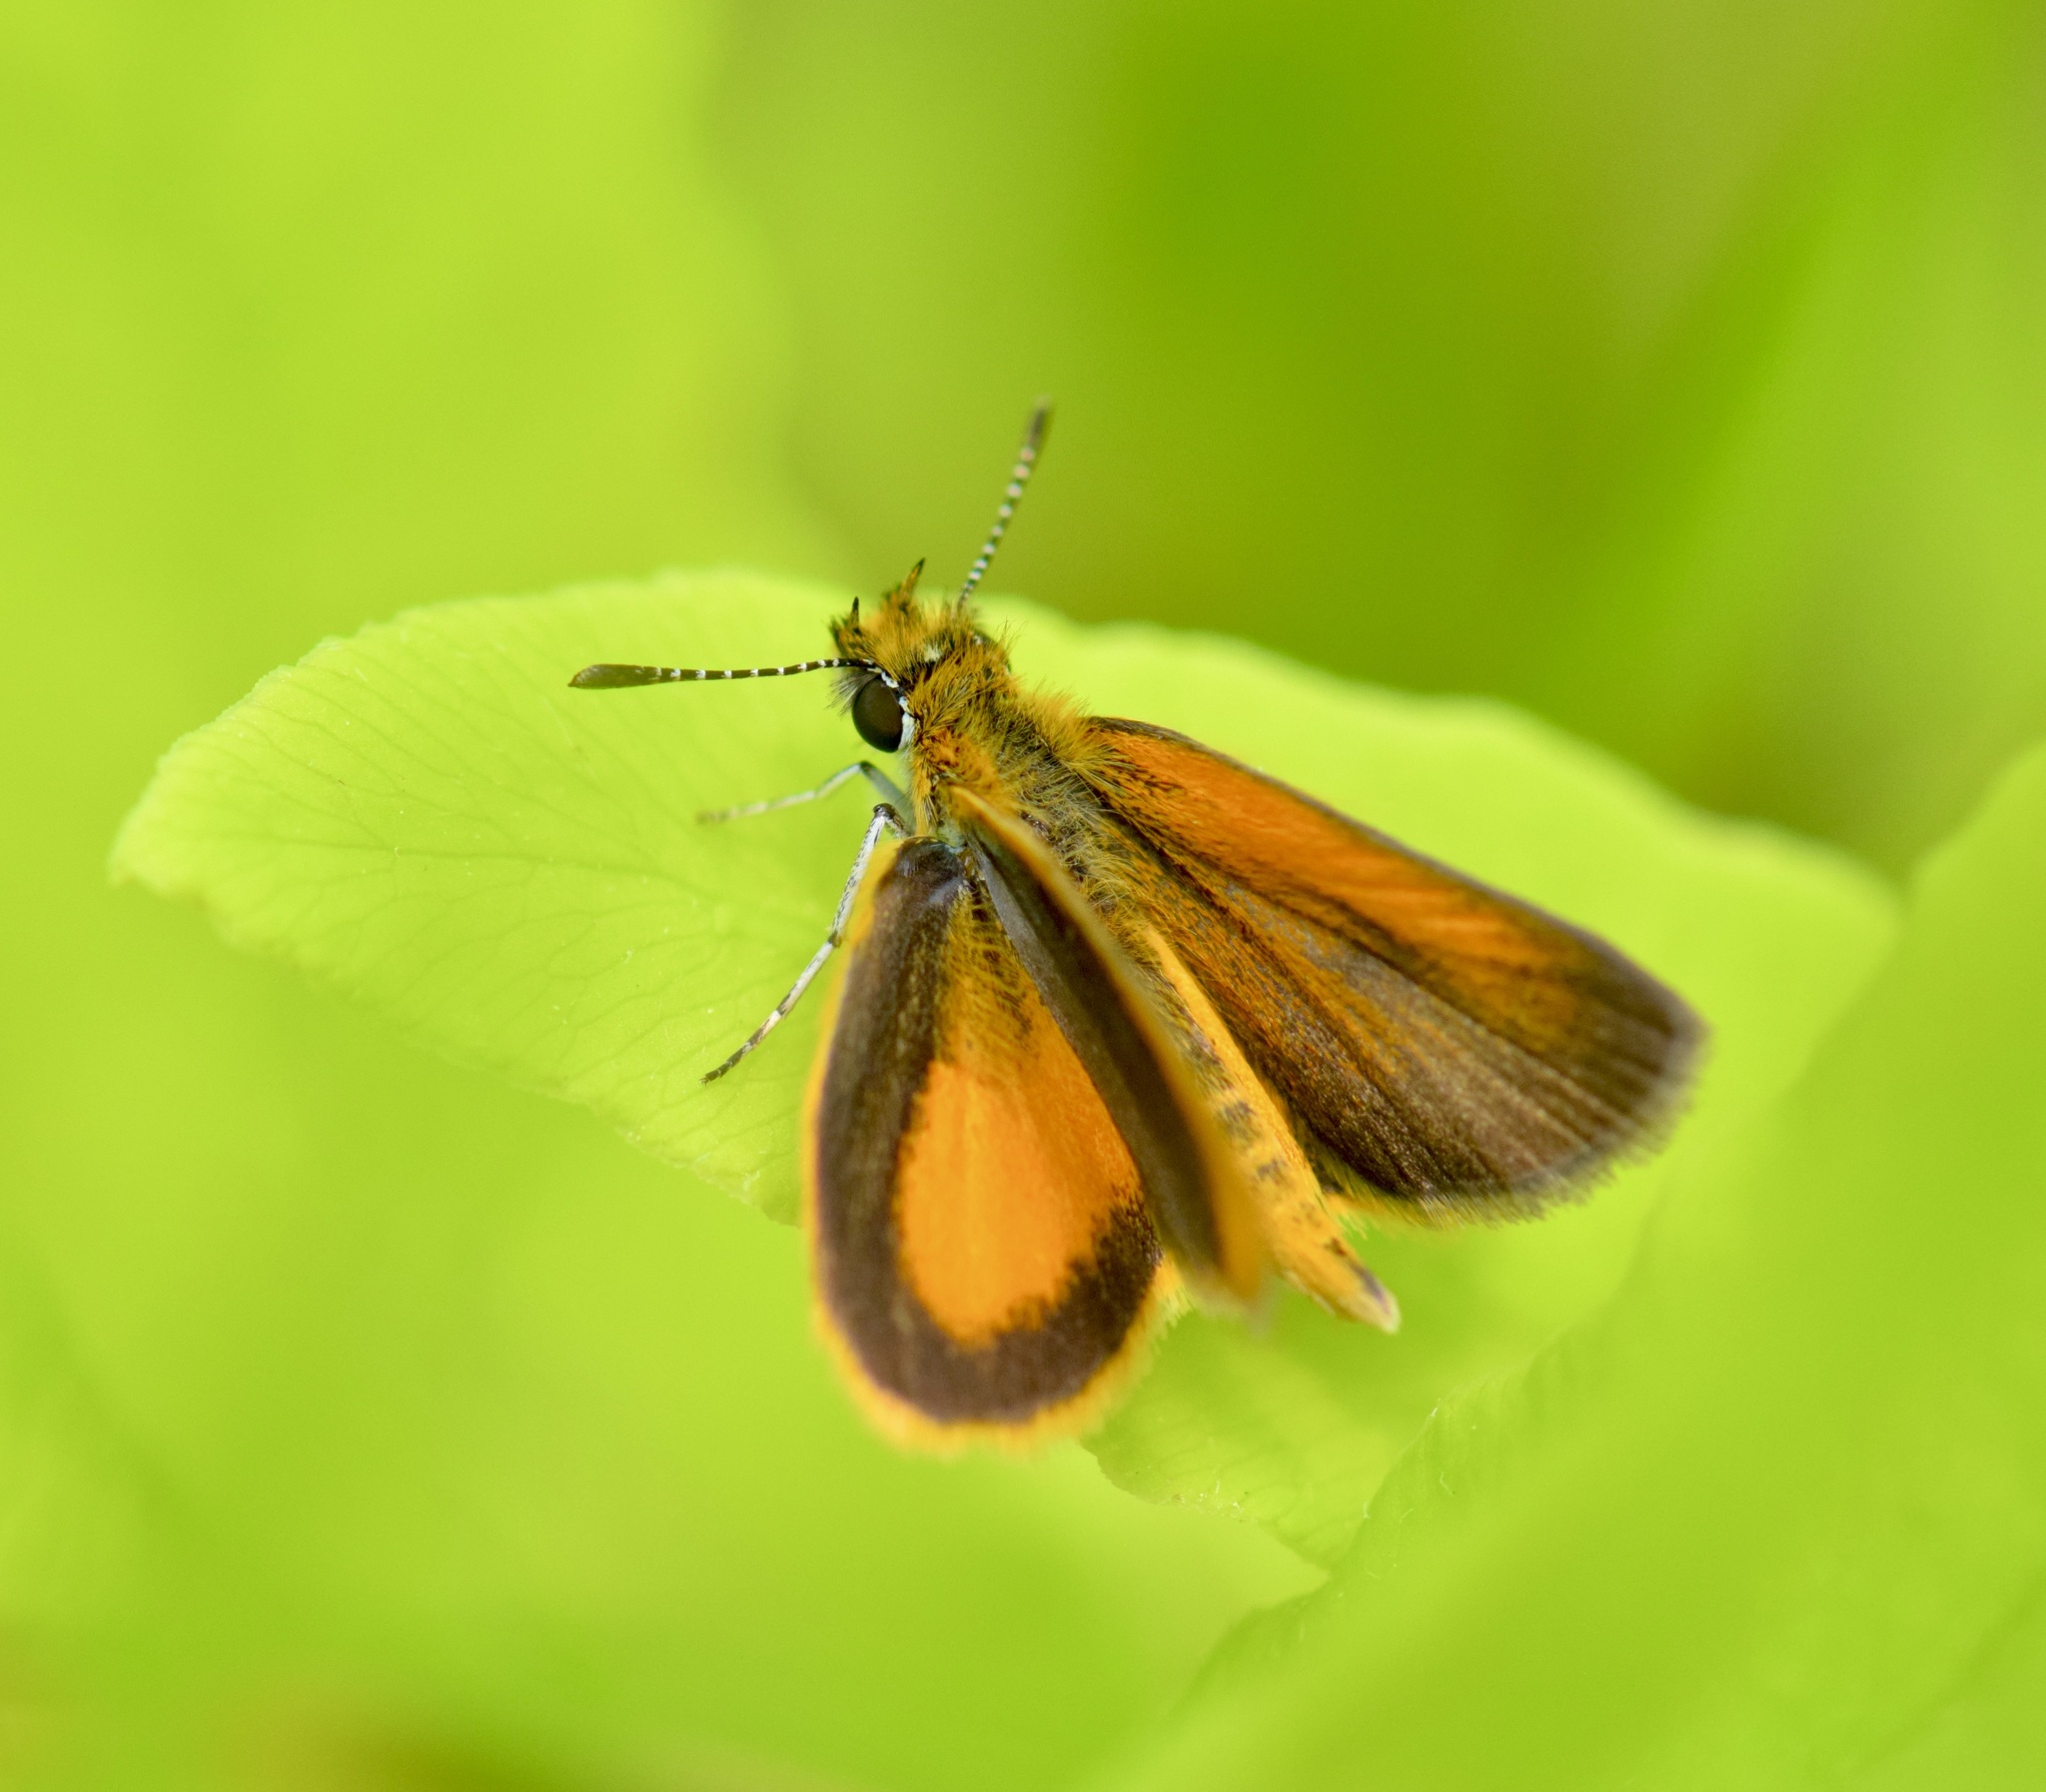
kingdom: Animalia
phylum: Arthropoda
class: Insecta
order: Lepidoptera
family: Hesperiidae
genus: Ancyloxypha
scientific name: Ancyloxypha numitor
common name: Least skipper
